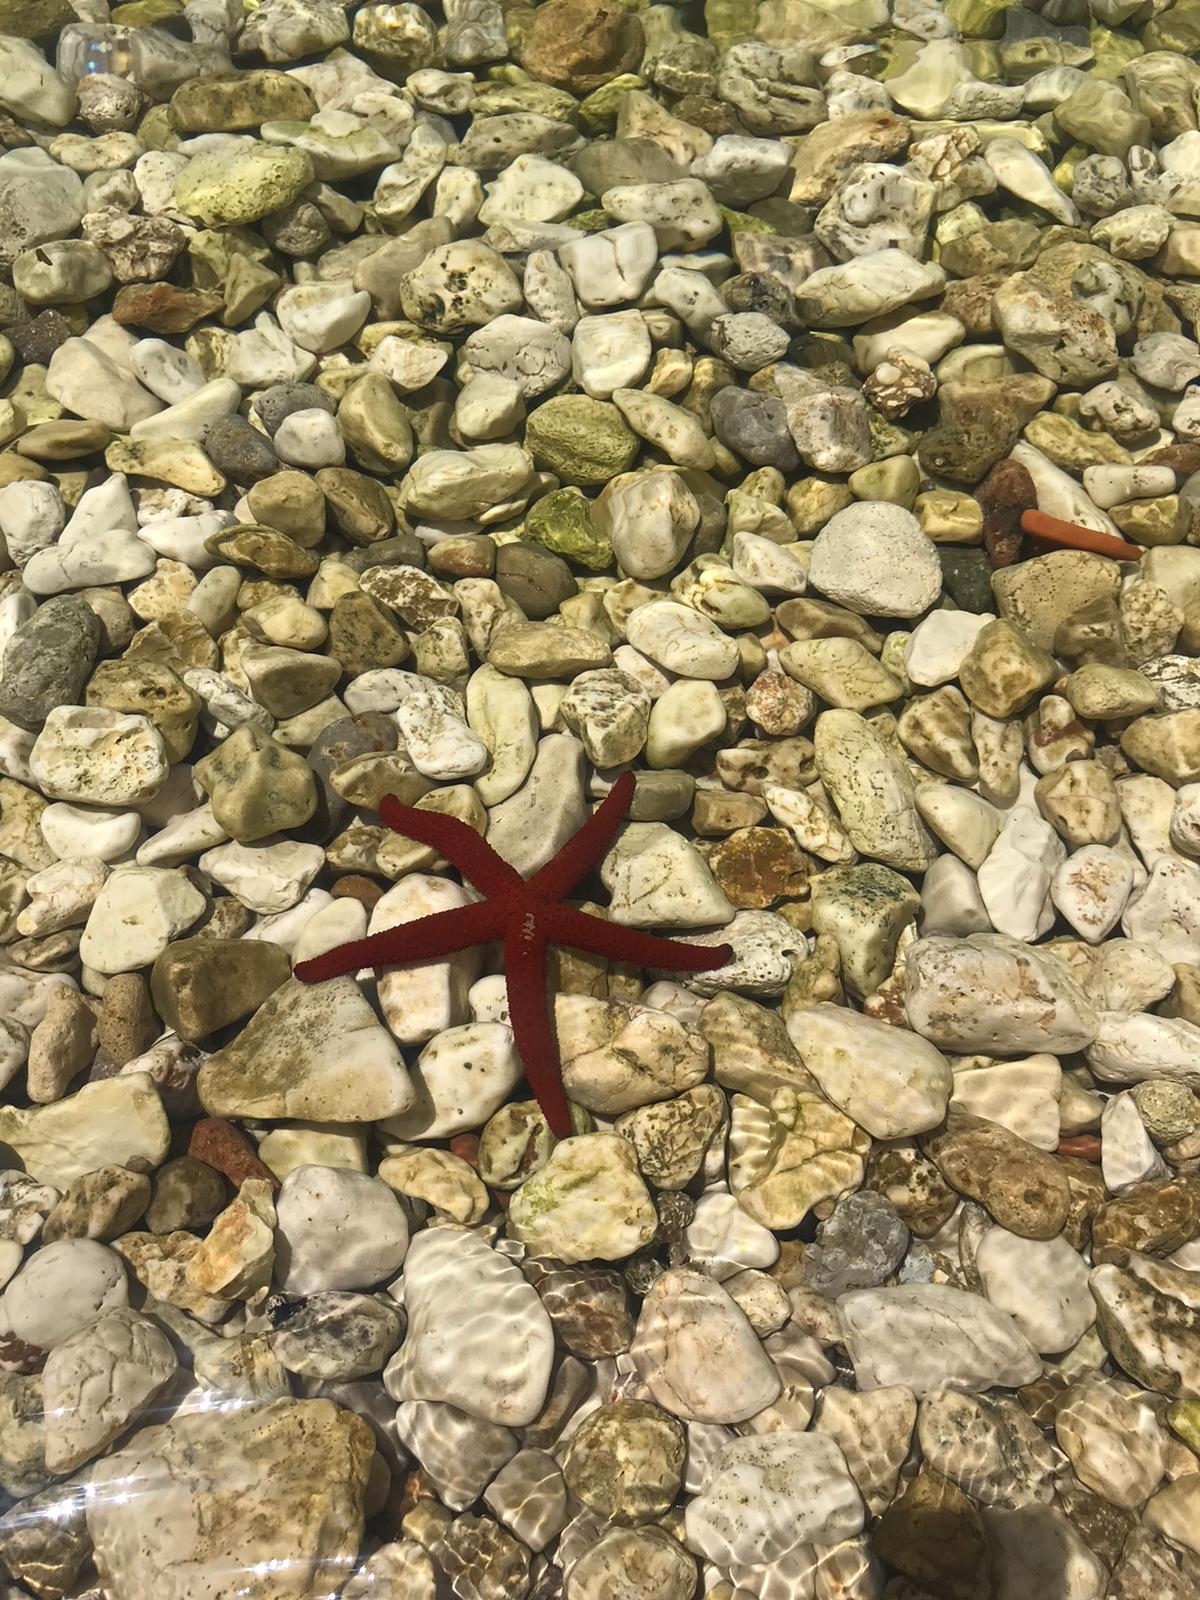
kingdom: Animalia
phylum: Echinodermata
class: Asteroidea
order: Spinulosida
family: Echinasteridae
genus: Echinaster
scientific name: Echinaster sepositus
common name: Red starfish
